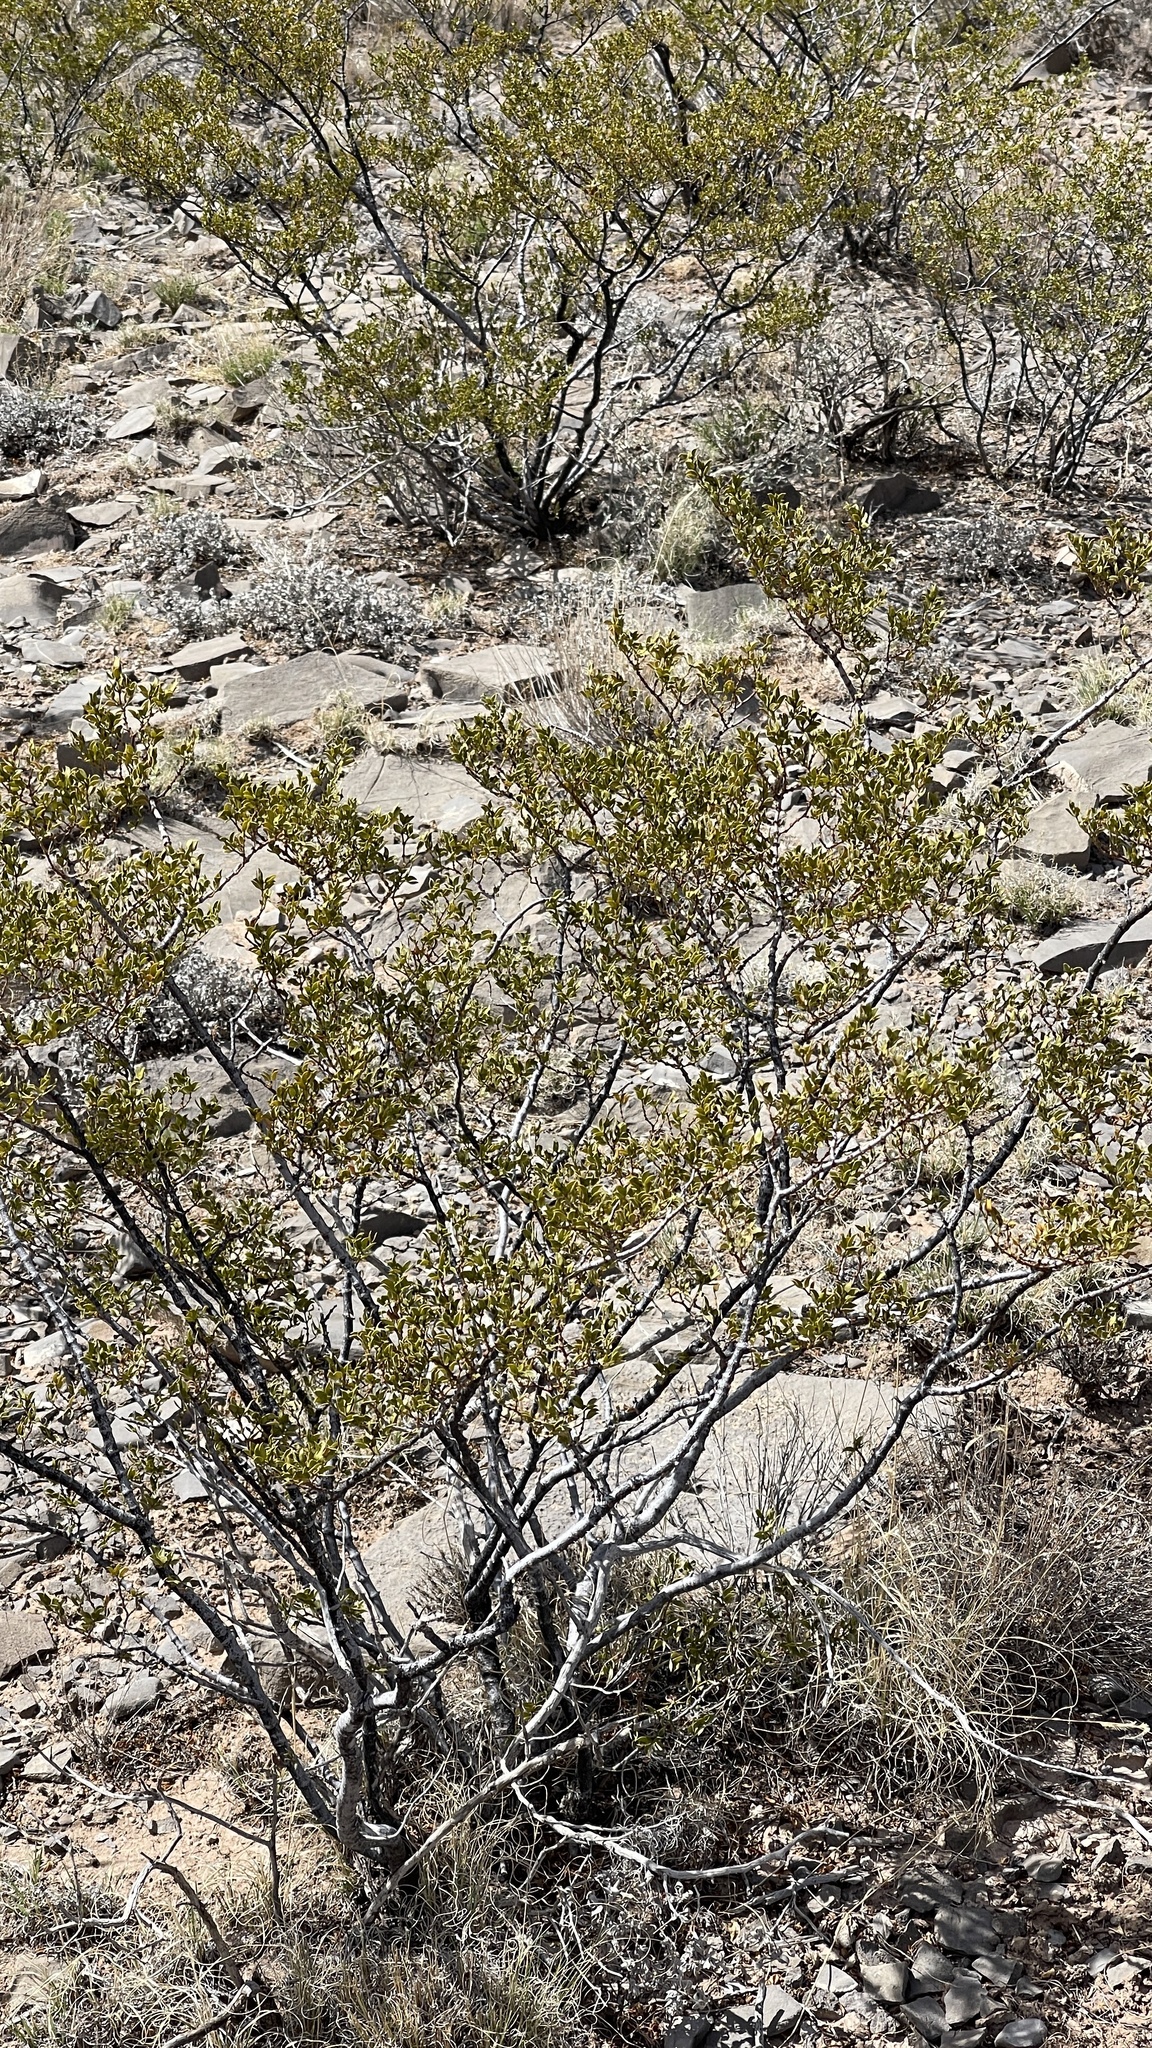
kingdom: Plantae
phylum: Tracheophyta
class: Magnoliopsida
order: Zygophyllales
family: Zygophyllaceae
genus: Larrea
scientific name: Larrea tridentata
